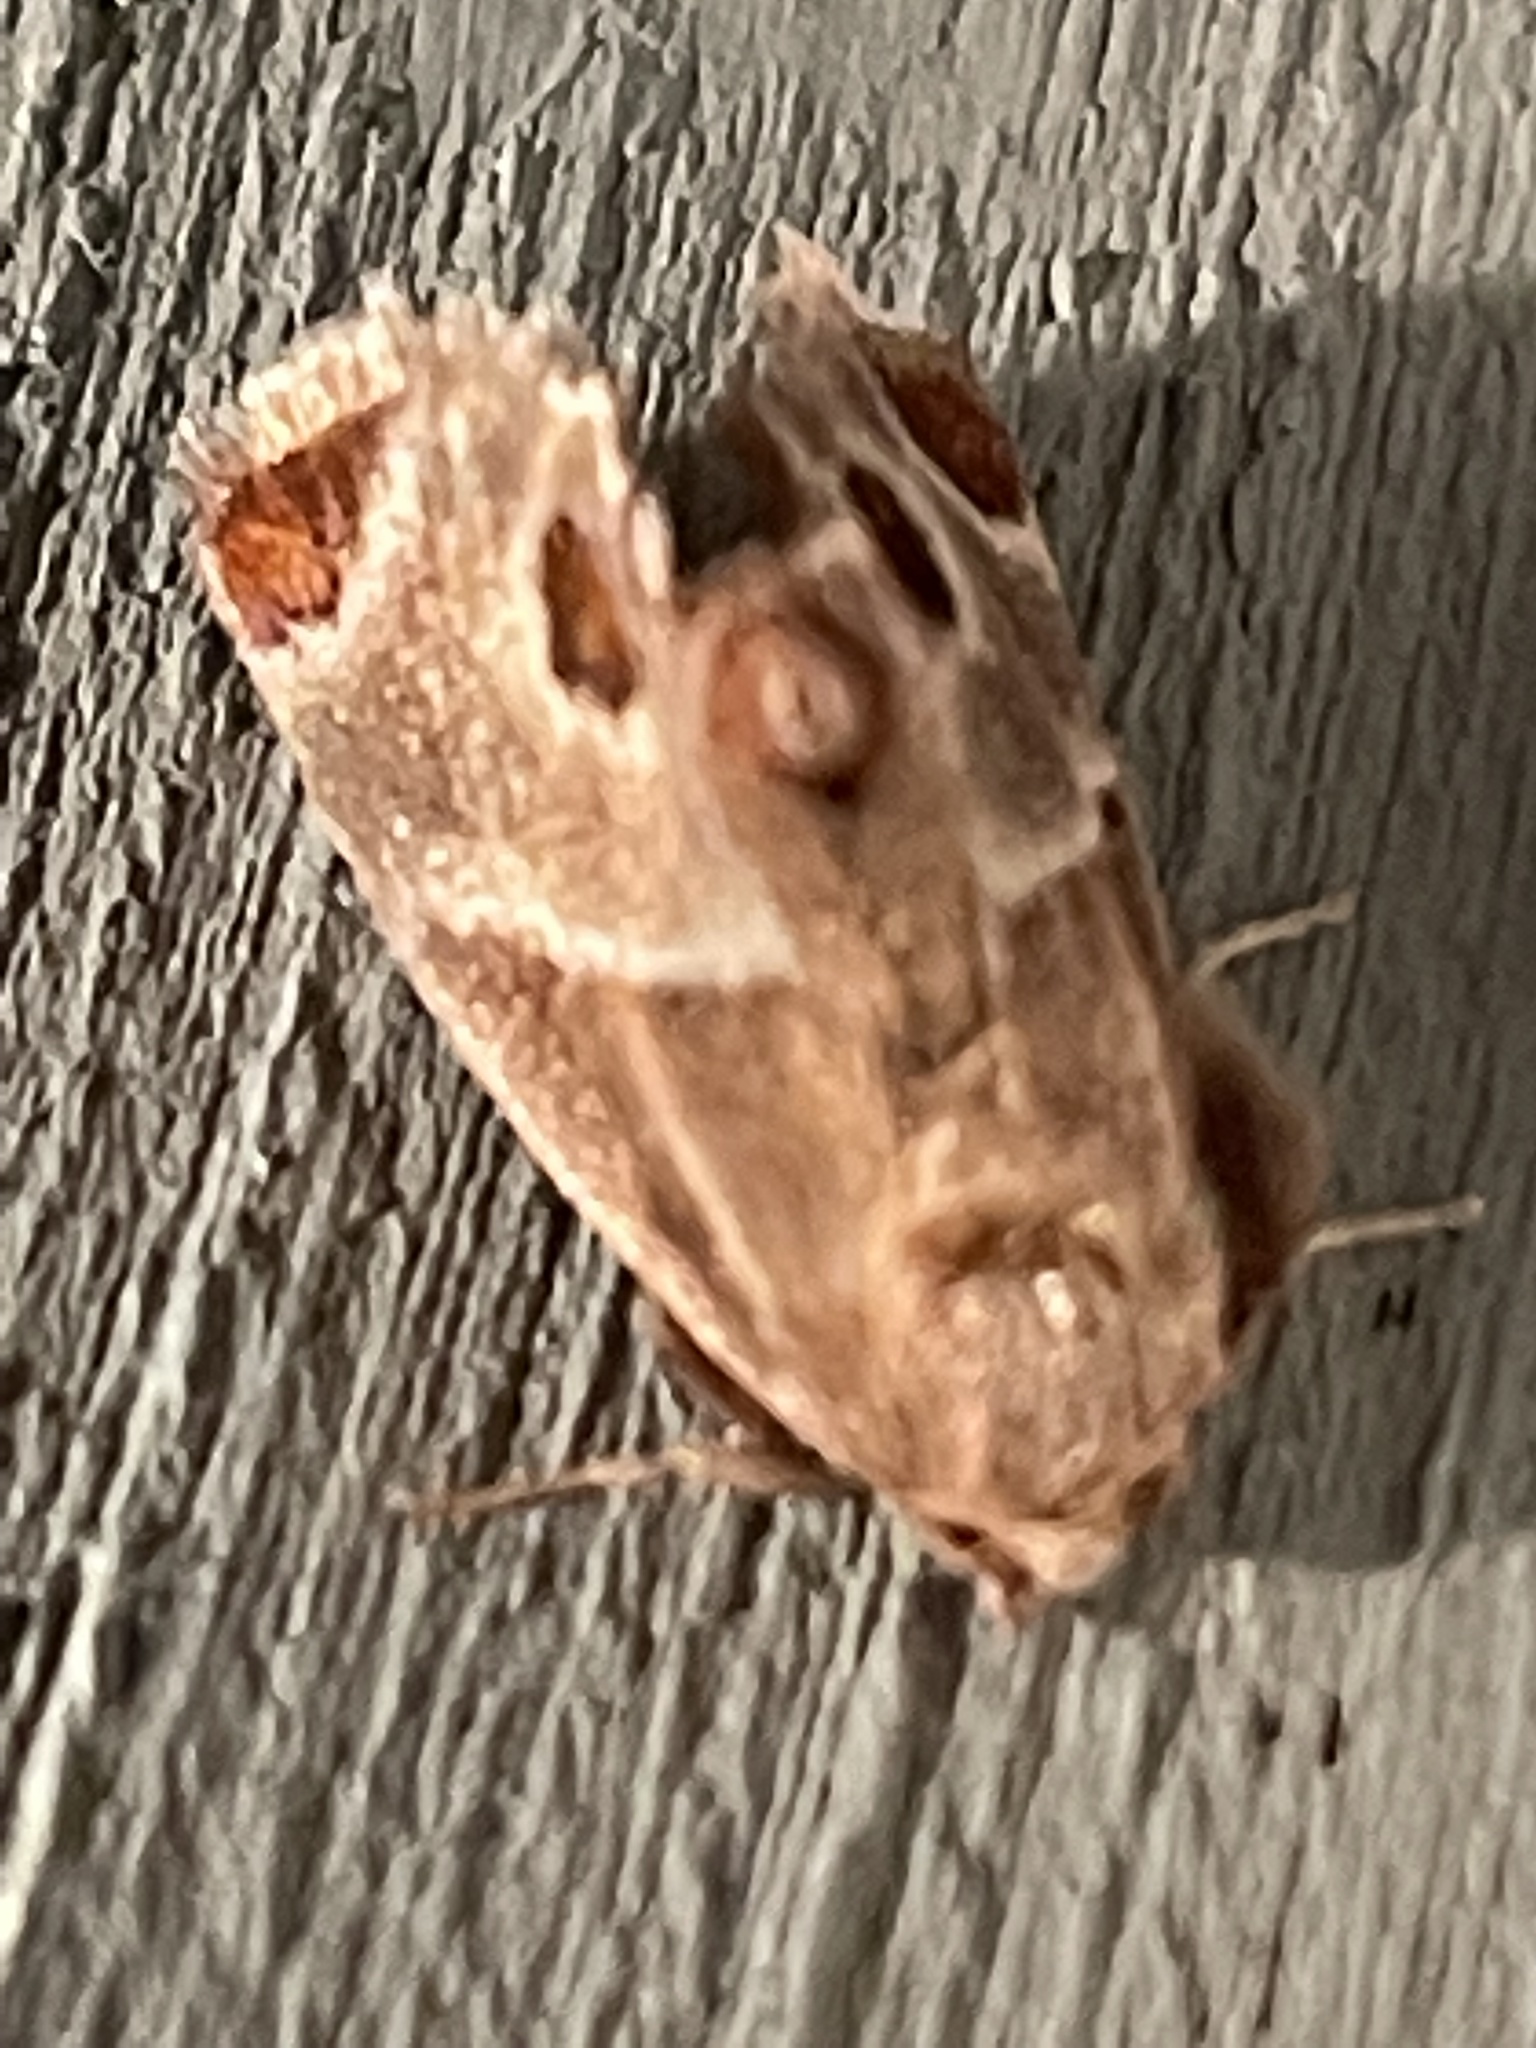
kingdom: Animalia
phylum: Arthropoda
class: Insecta
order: Lepidoptera
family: Limacodidae
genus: Apoda
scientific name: Apoda biguttata
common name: Shagreened slug moth
